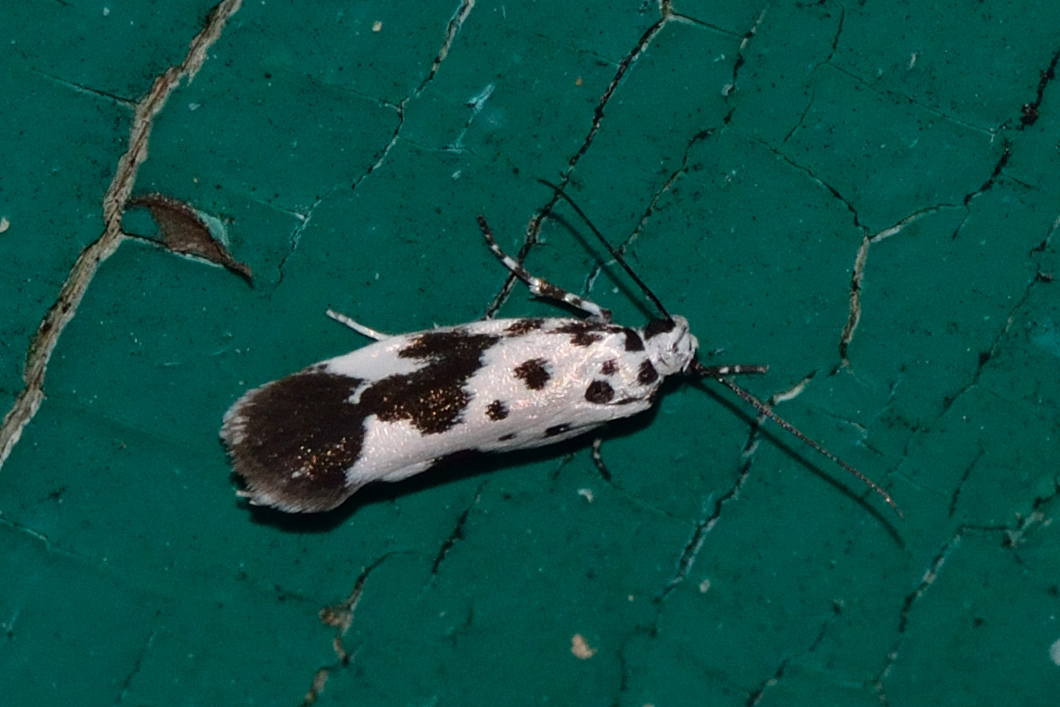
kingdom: Animalia
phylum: Arthropoda
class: Insecta
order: Lepidoptera
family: Ethmiidae
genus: Ethmia
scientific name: Ethmia quadrillella
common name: Comfrey ermel
